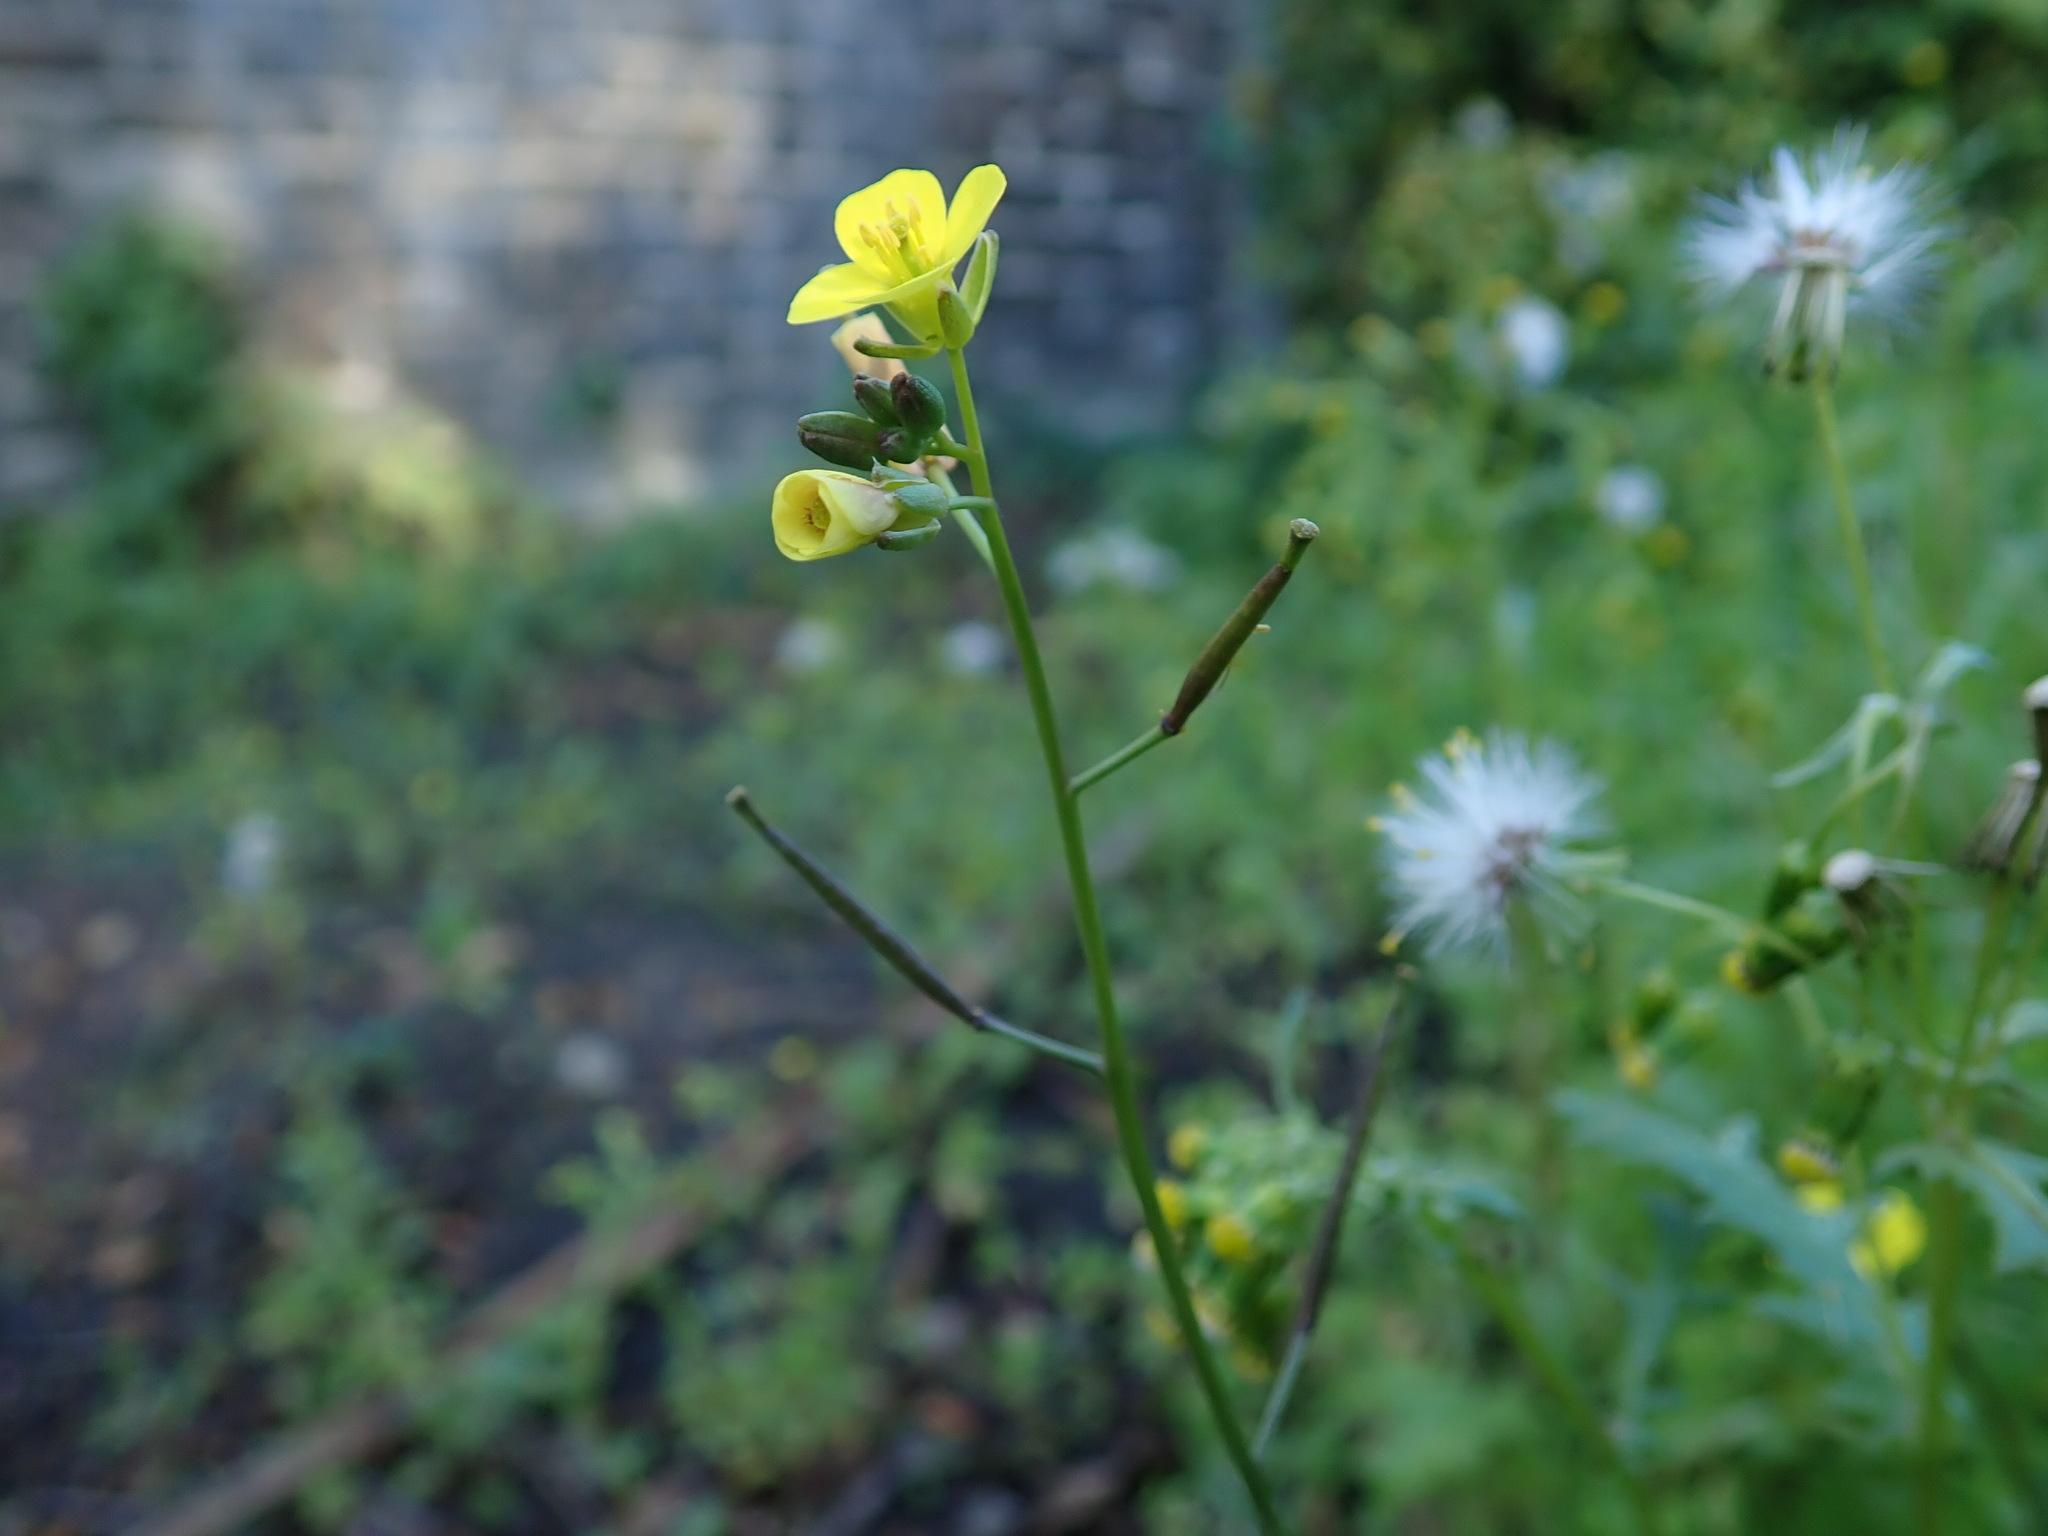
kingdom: Plantae
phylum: Tracheophyta
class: Magnoliopsida
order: Brassicales
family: Brassicaceae
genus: Diplotaxis
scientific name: Diplotaxis muralis
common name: Annual wall-rocket
